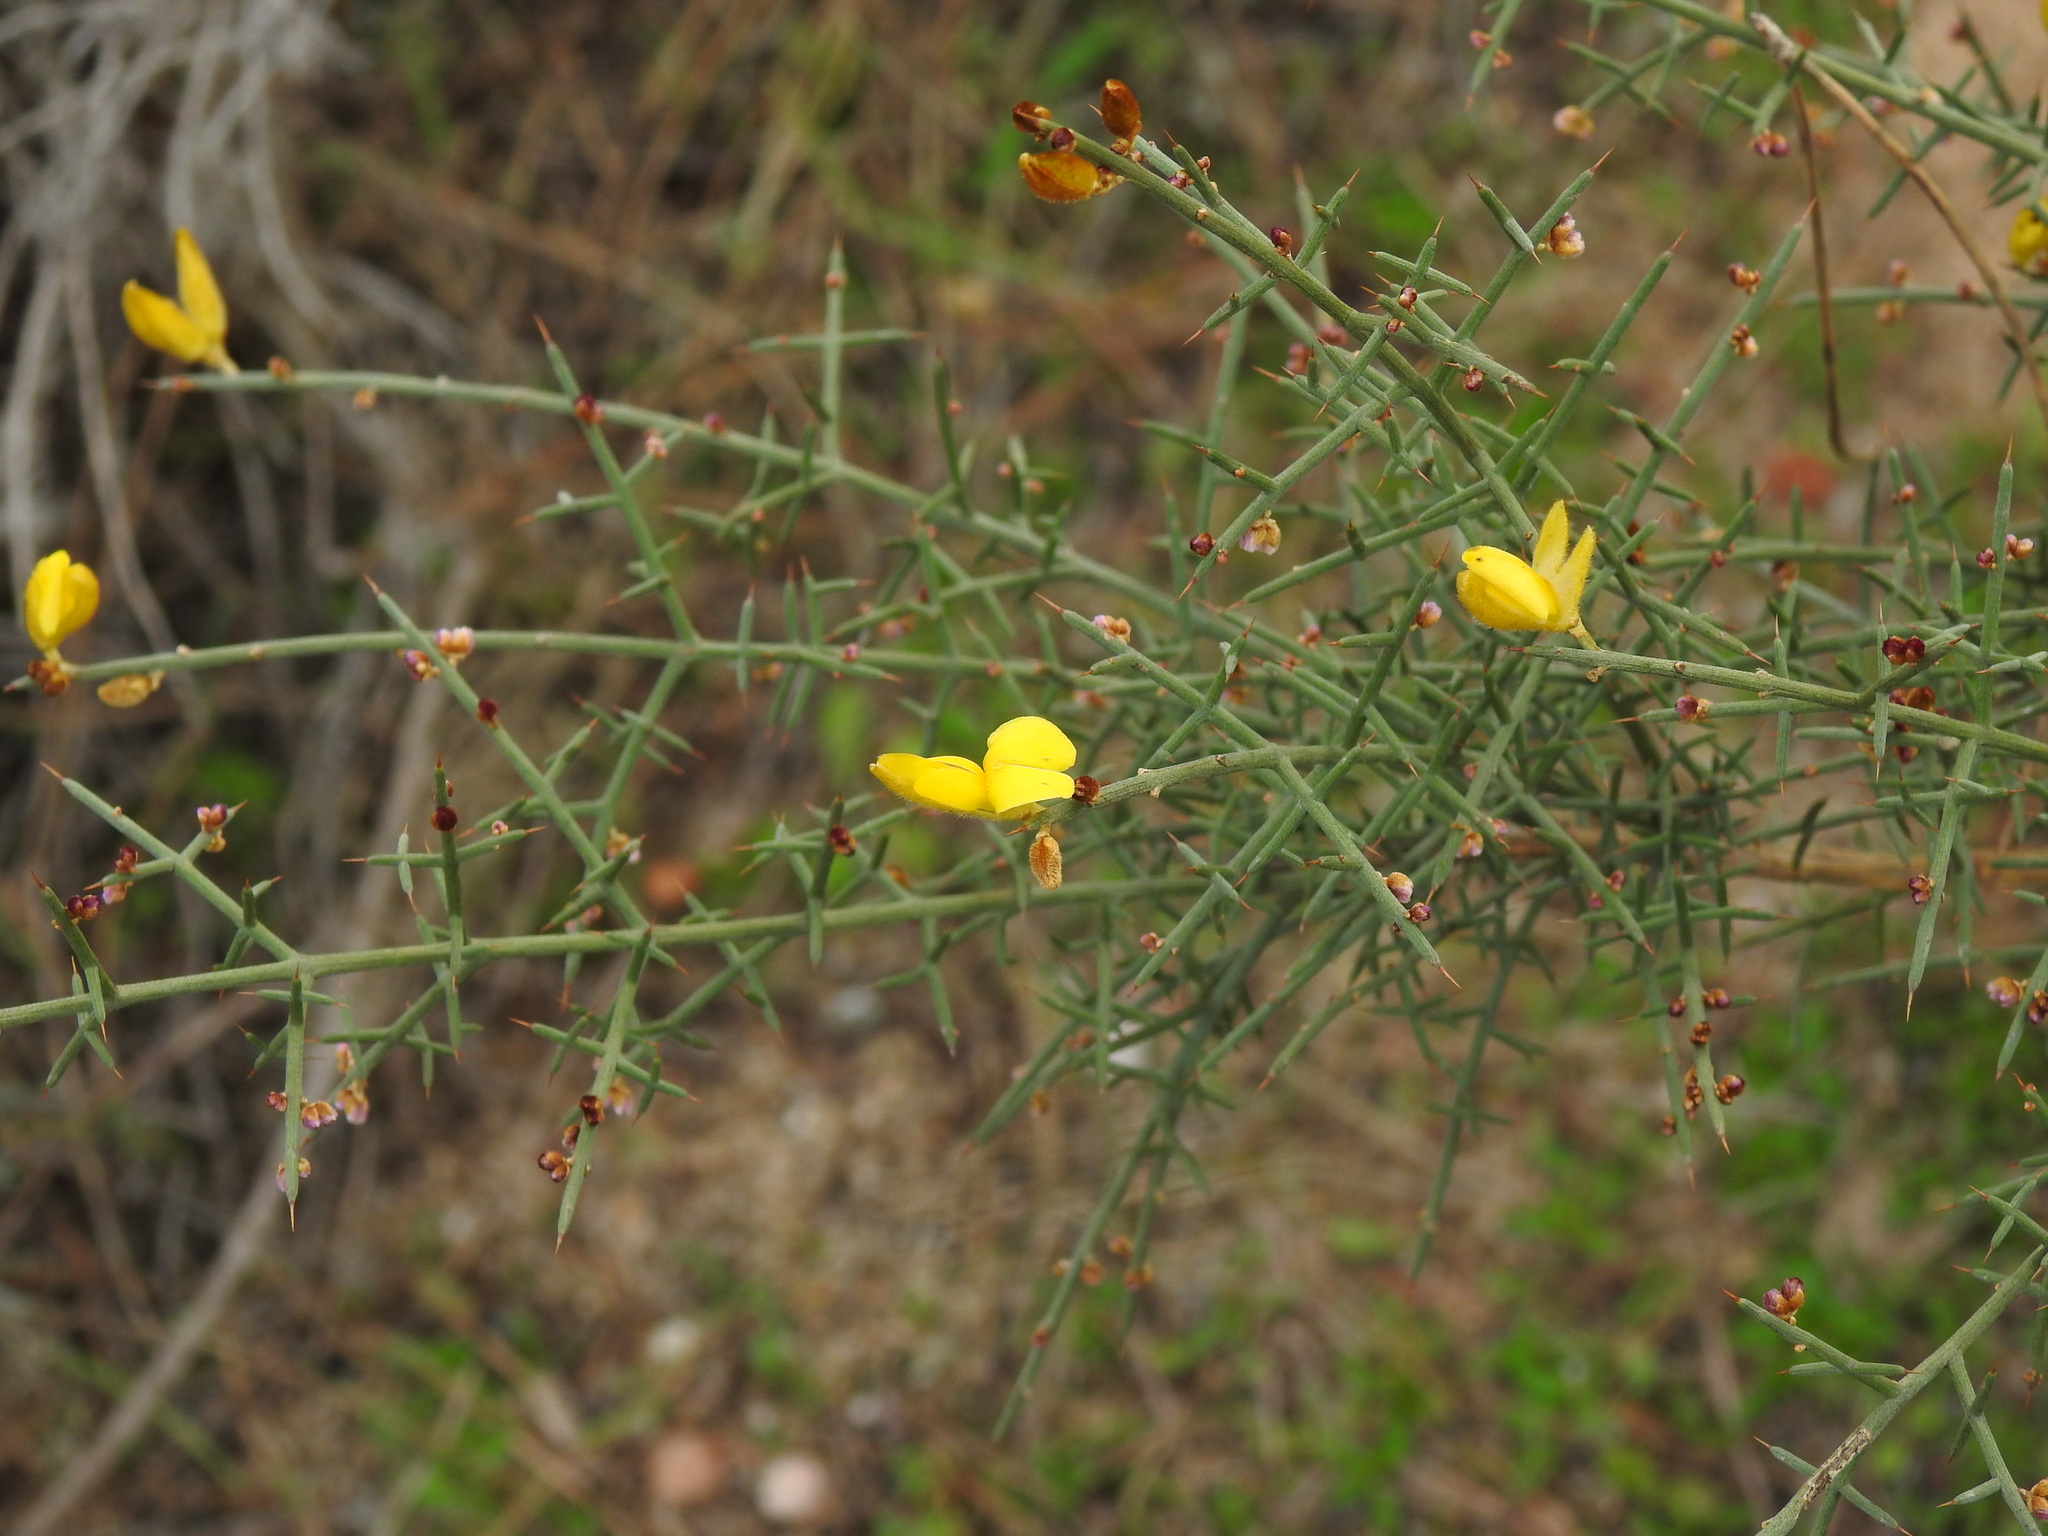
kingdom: Plantae
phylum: Tracheophyta
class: Magnoliopsida
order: Fabales
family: Fabaceae
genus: Stauracanthus
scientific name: Stauracanthus genistoides
